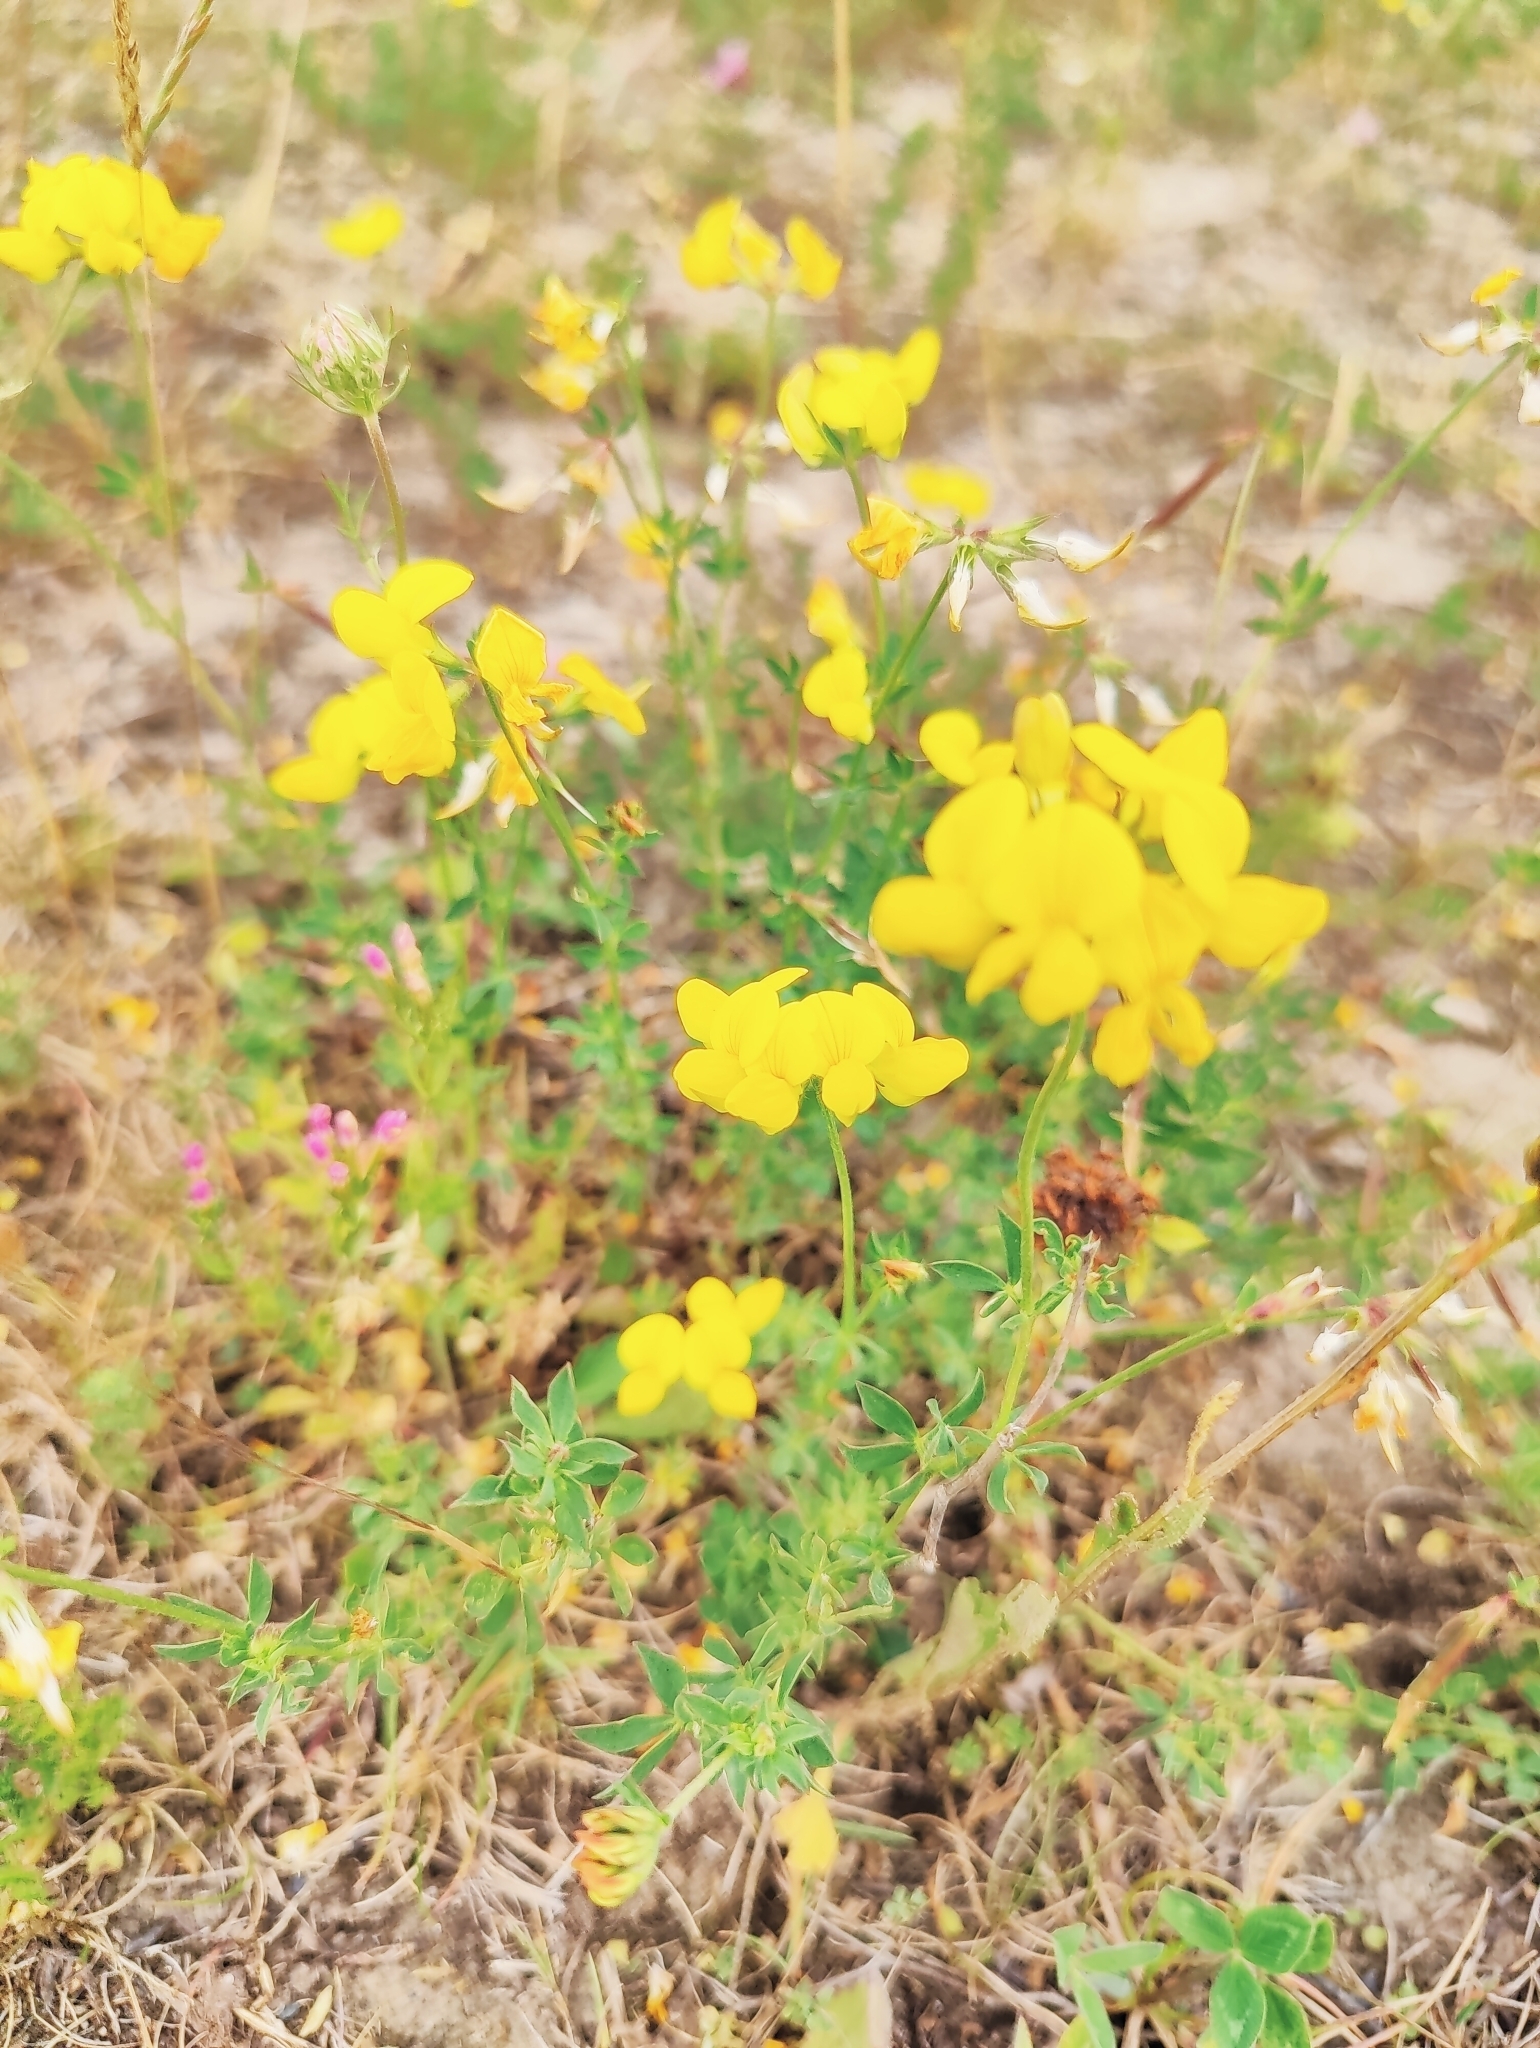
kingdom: Plantae
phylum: Tracheophyta
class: Magnoliopsida
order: Fabales
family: Fabaceae
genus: Lotus
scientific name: Lotus corniculatus
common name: Common bird's-foot-trefoil
